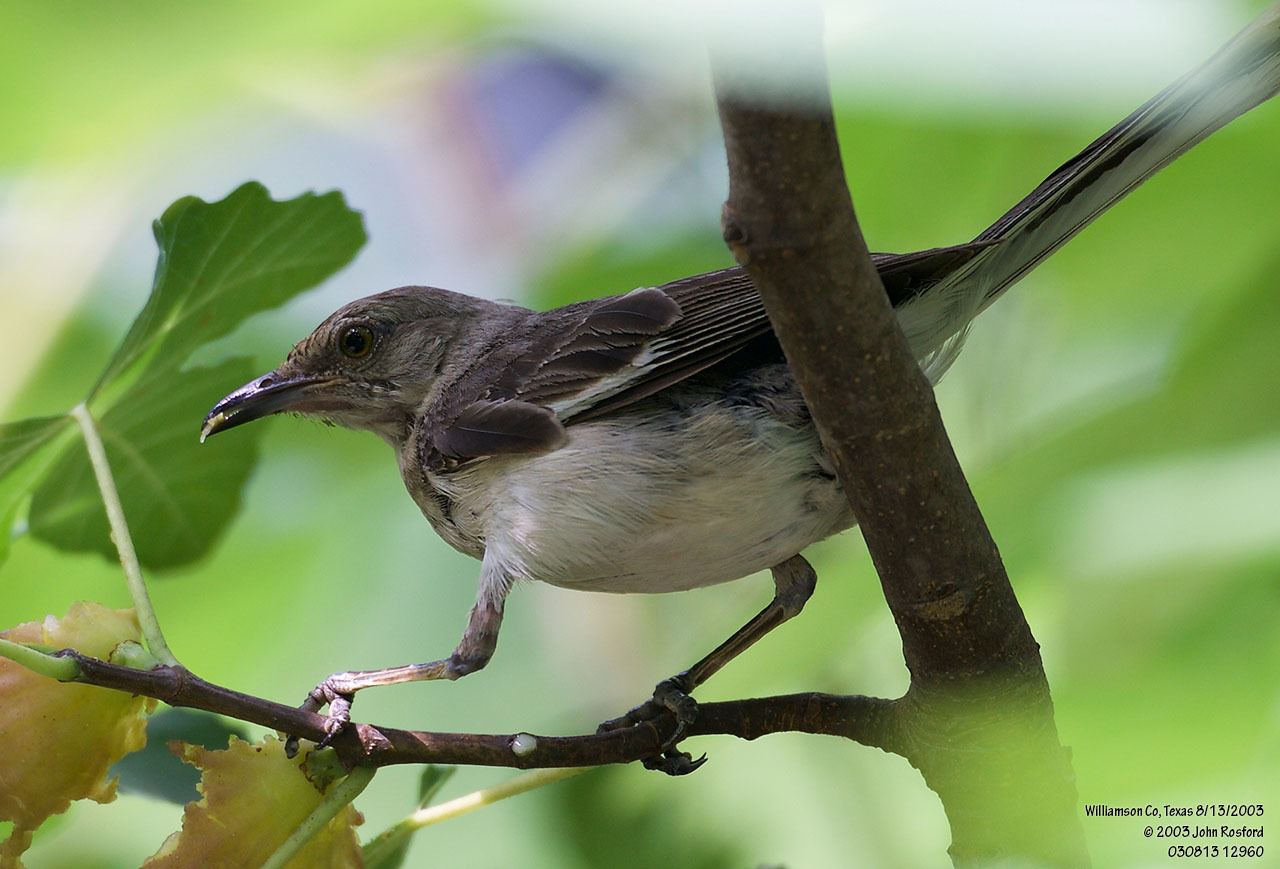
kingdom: Animalia
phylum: Chordata
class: Aves
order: Passeriformes
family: Mimidae
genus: Mimus
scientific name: Mimus polyglottos
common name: Northern mockingbird
